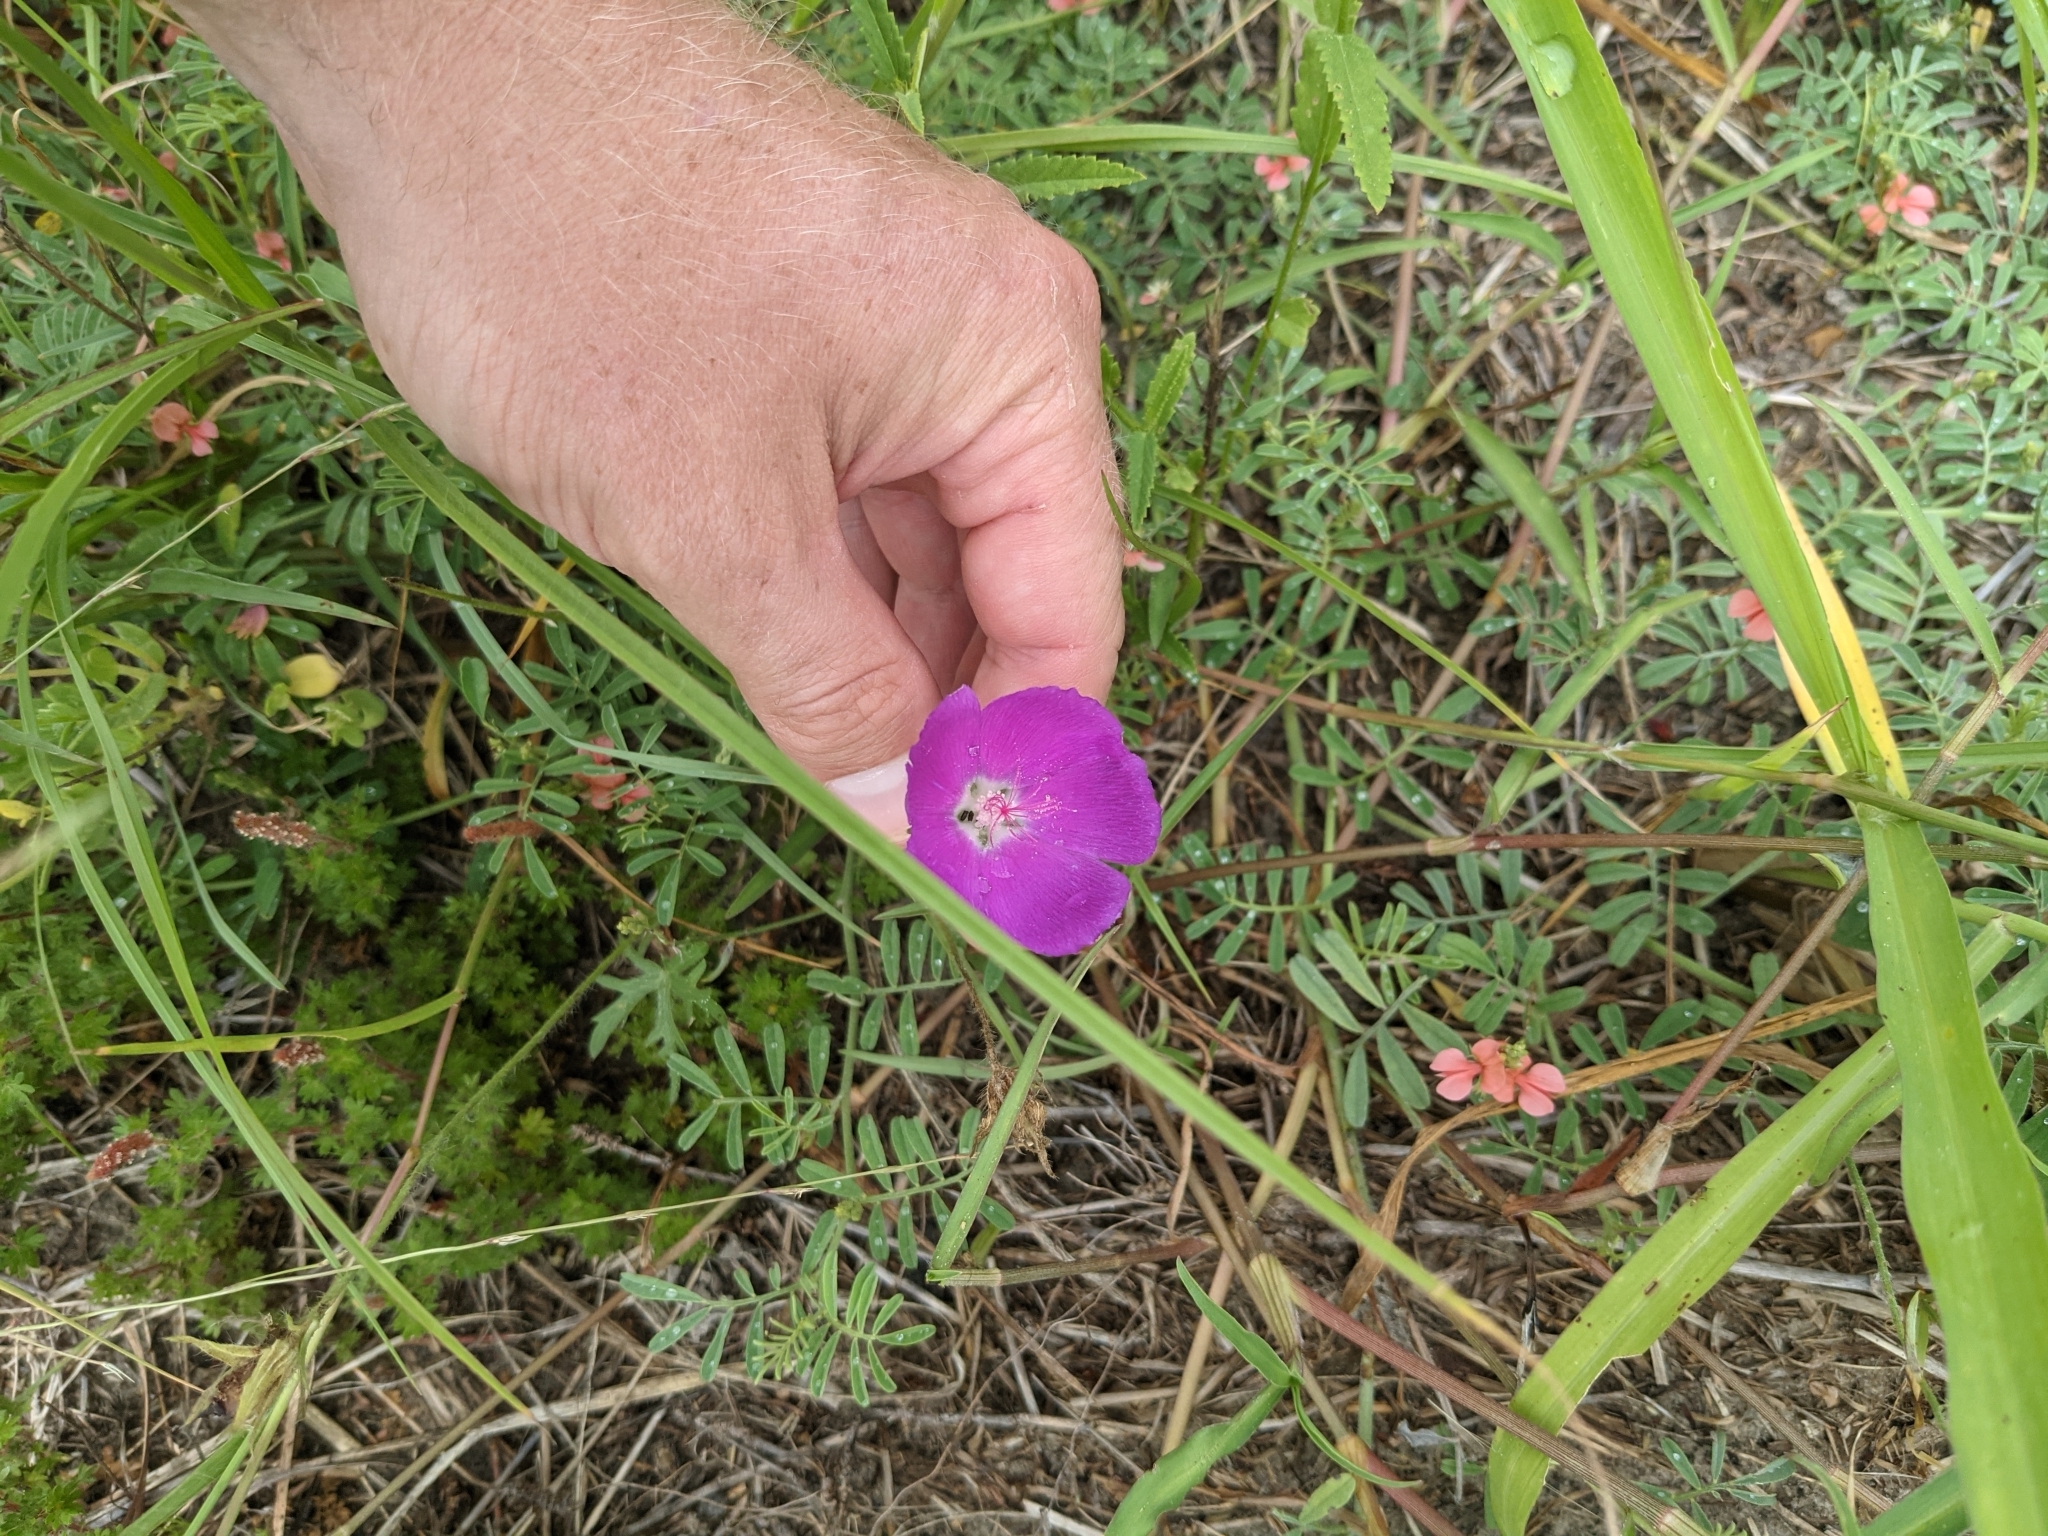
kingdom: Plantae
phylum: Tracheophyta
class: Magnoliopsida
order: Malvales
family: Malvaceae
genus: Callirhoe
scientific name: Callirhoe involucrata
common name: Purple poppy-mallow
